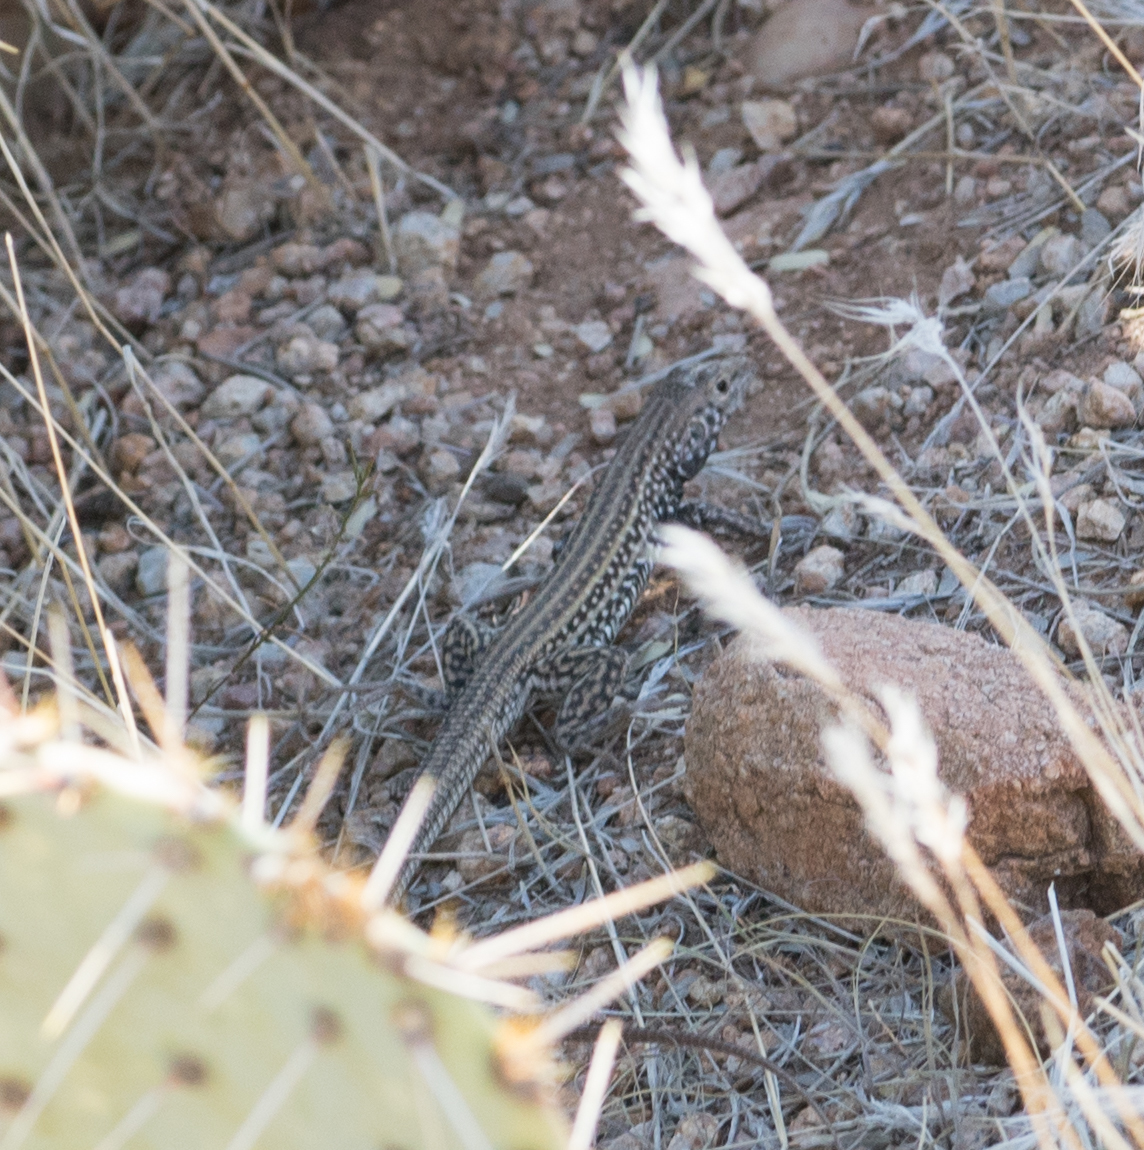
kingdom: Animalia
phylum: Chordata
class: Squamata
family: Teiidae
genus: Aspidoscelis
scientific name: Aspidoscelis tigris
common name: Tiger whiptail
